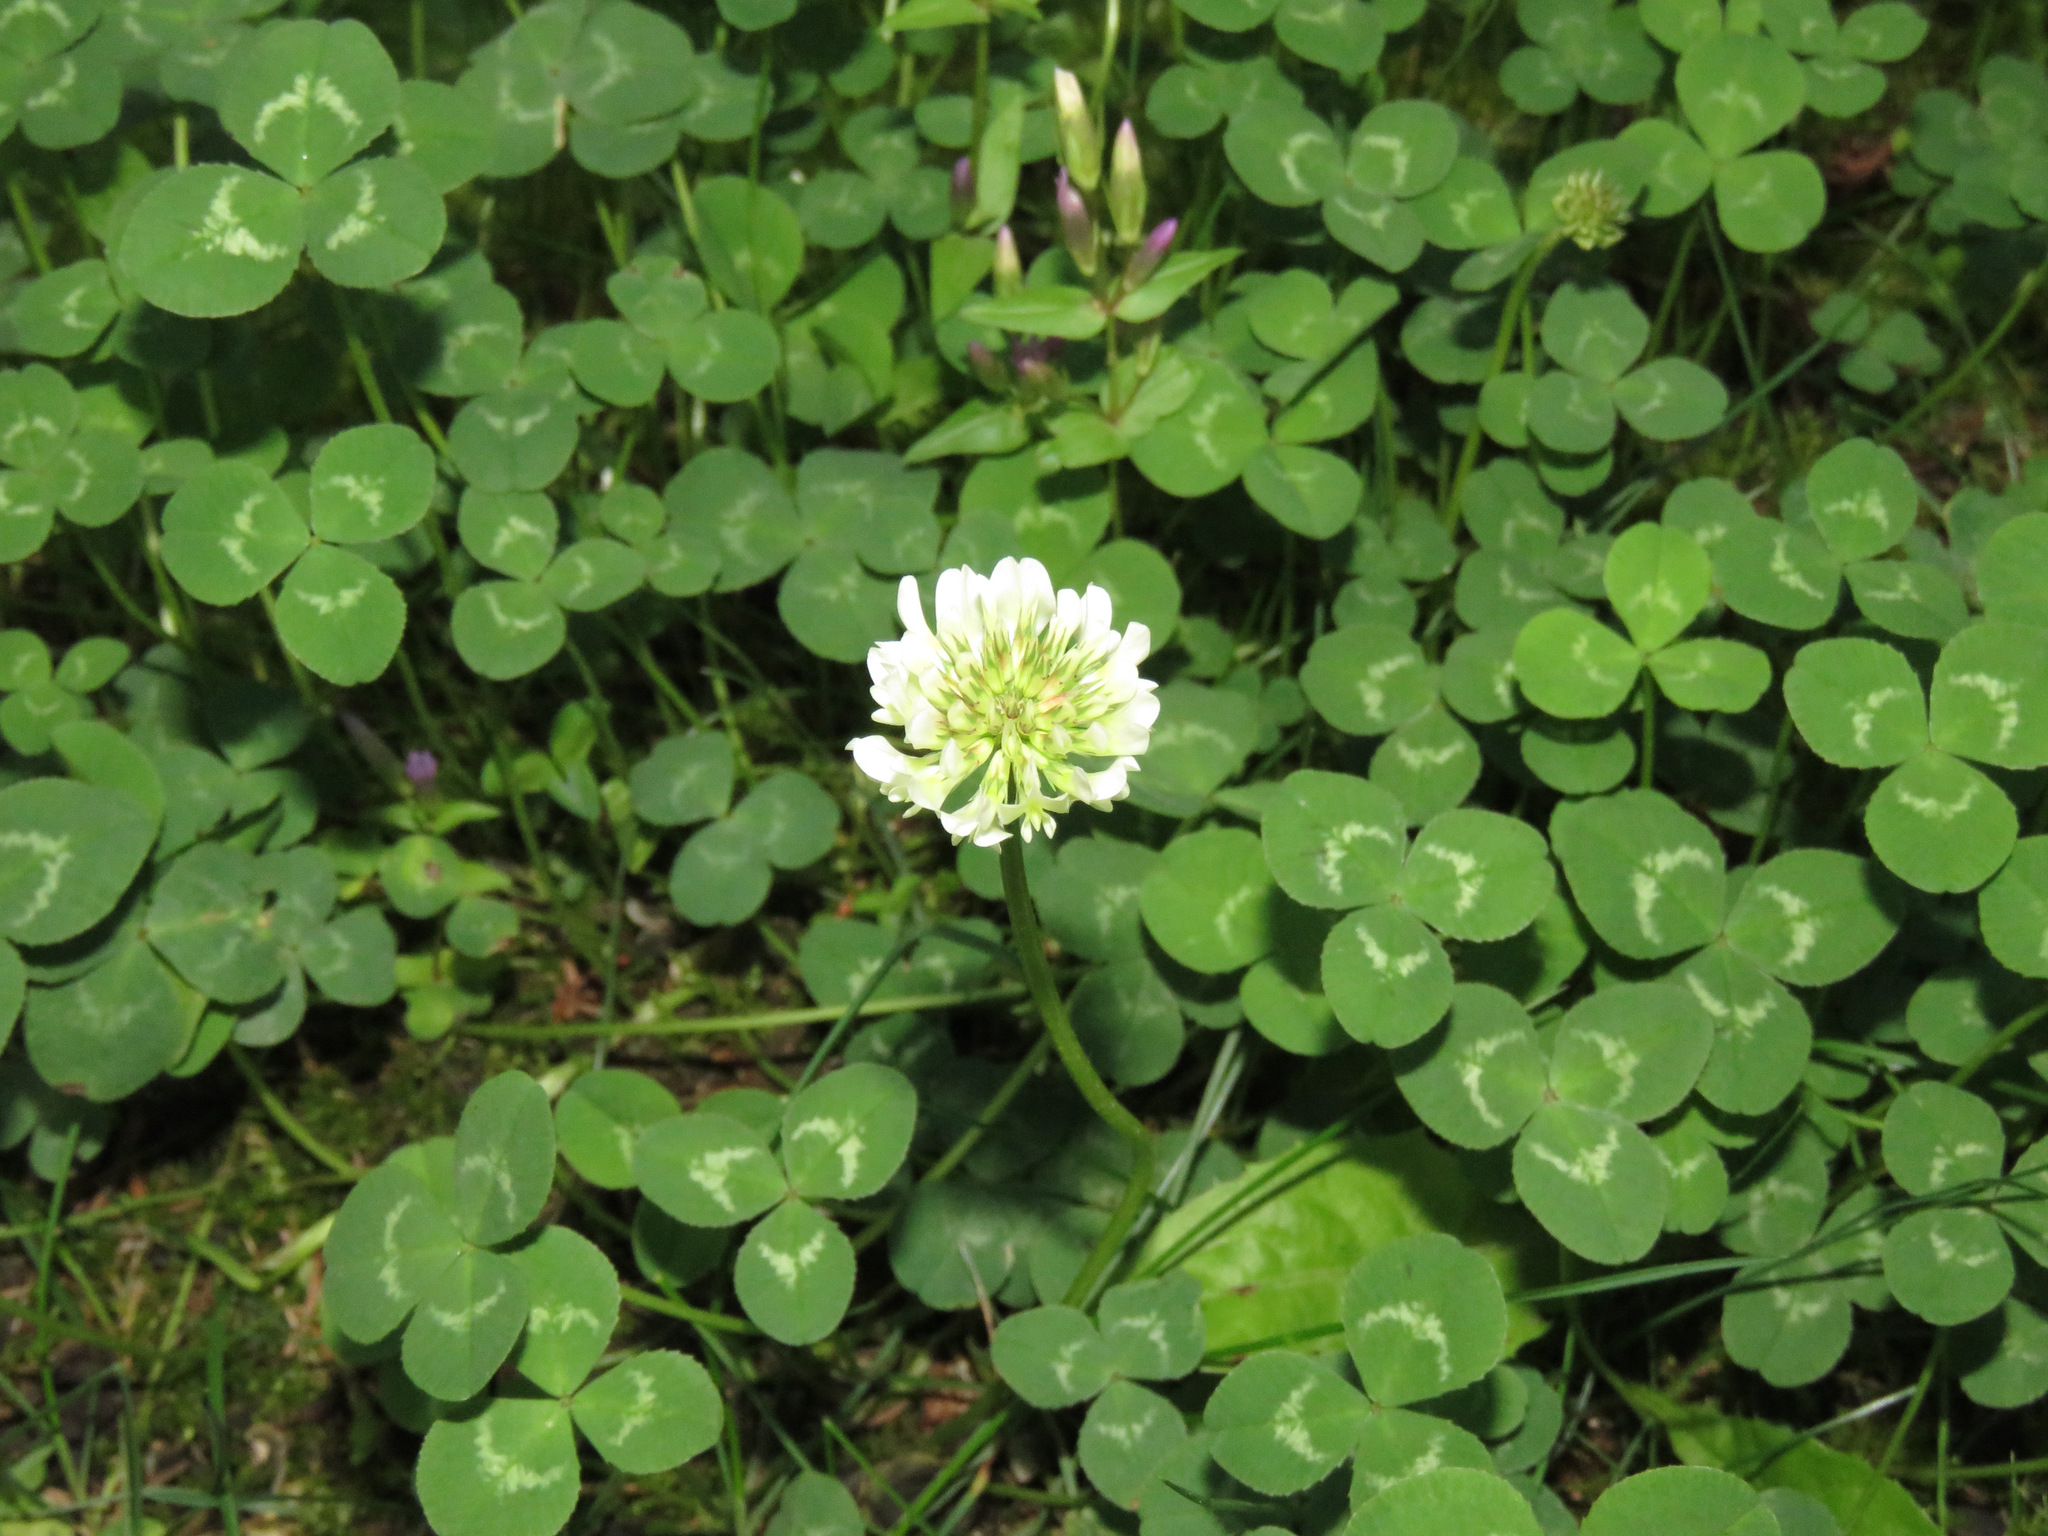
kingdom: Plantae
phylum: Tracheophyta
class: Magnoliopsida
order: Fabales
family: Fabaceae
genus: Trifolium
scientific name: Trifolium repens
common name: White clover
